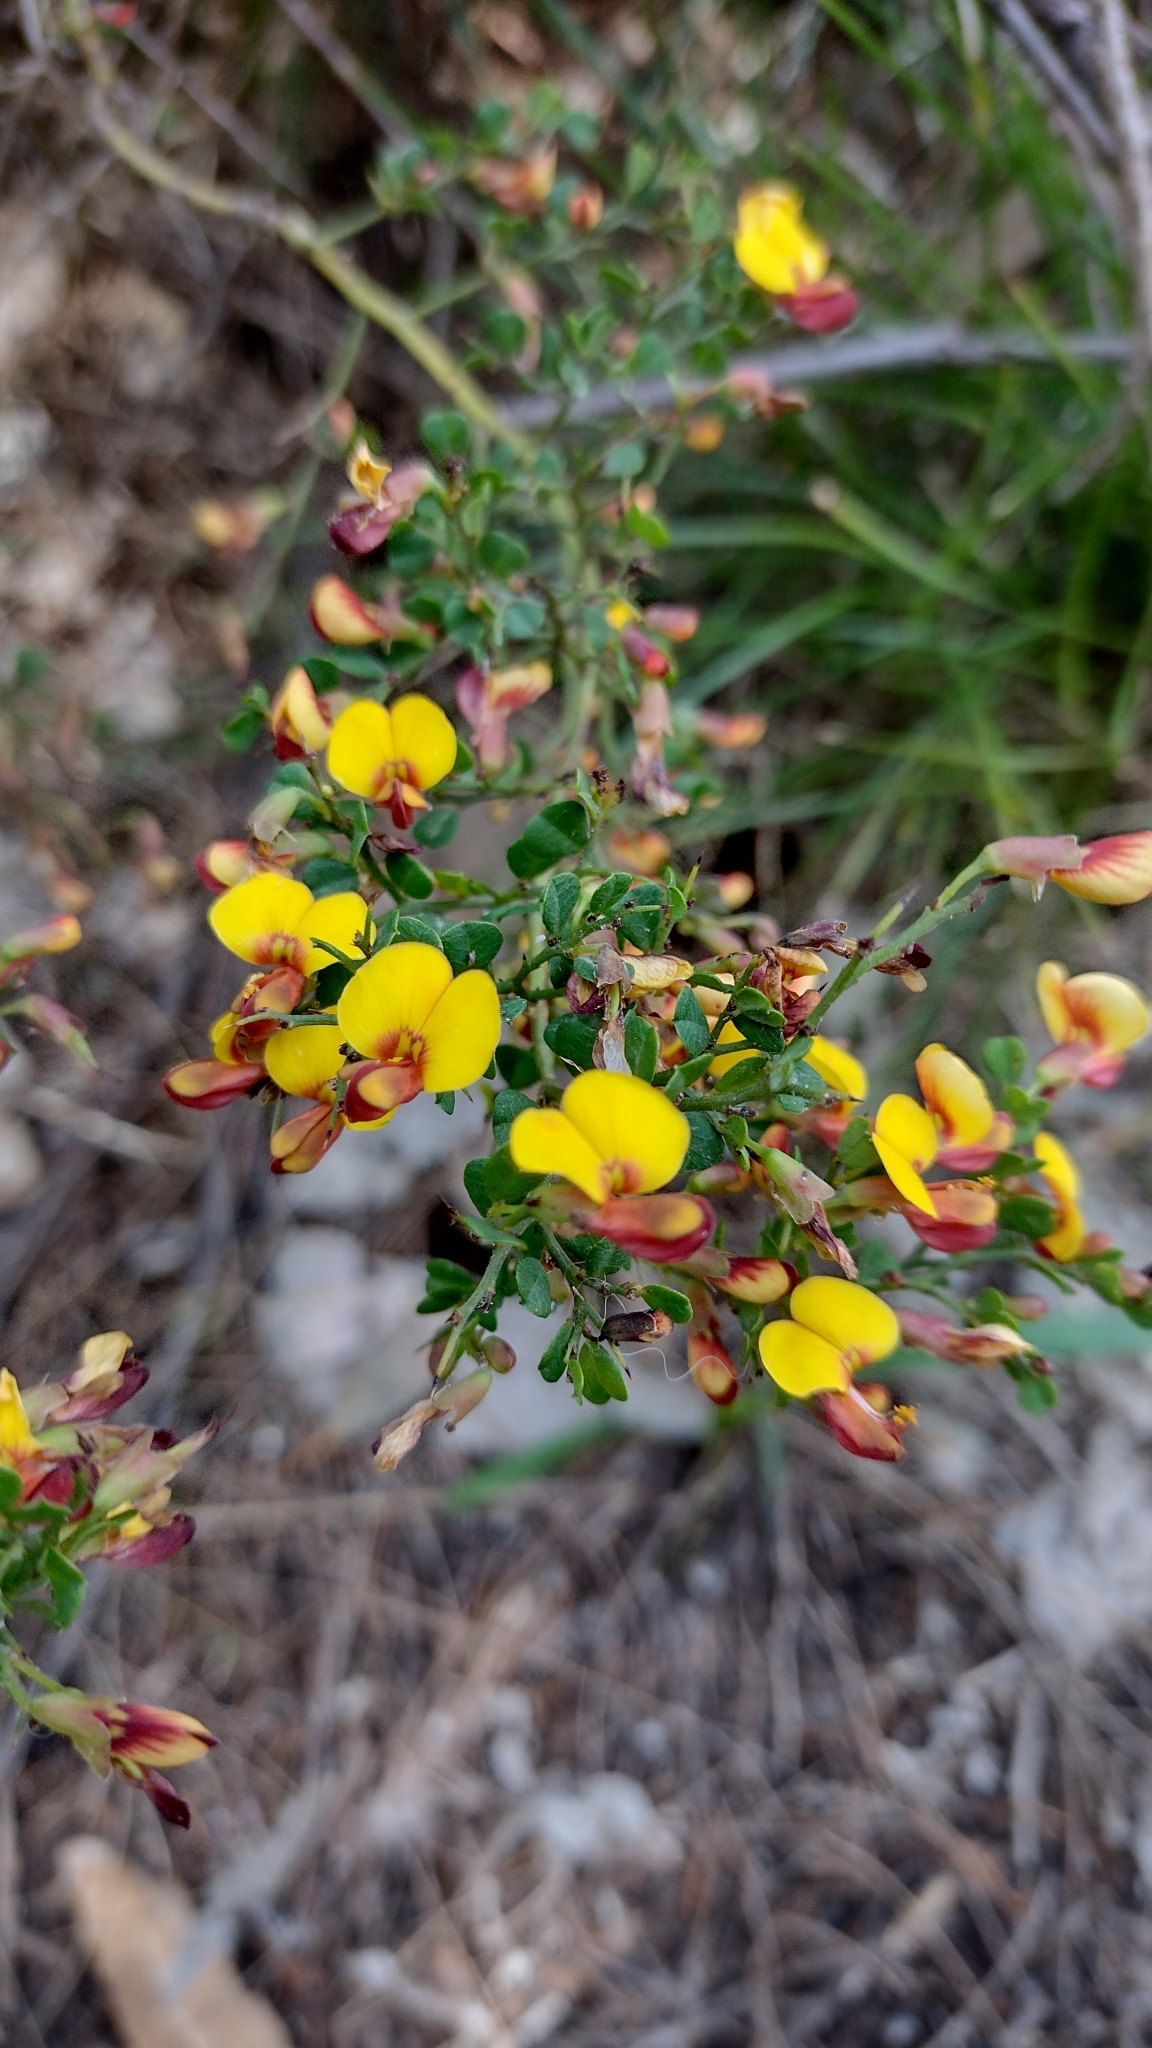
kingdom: Plantae
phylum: Tracheophyta
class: Magnoliopsida
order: Fabales
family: Fabaceae
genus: Bossiaea
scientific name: Bossiaea obcordata
